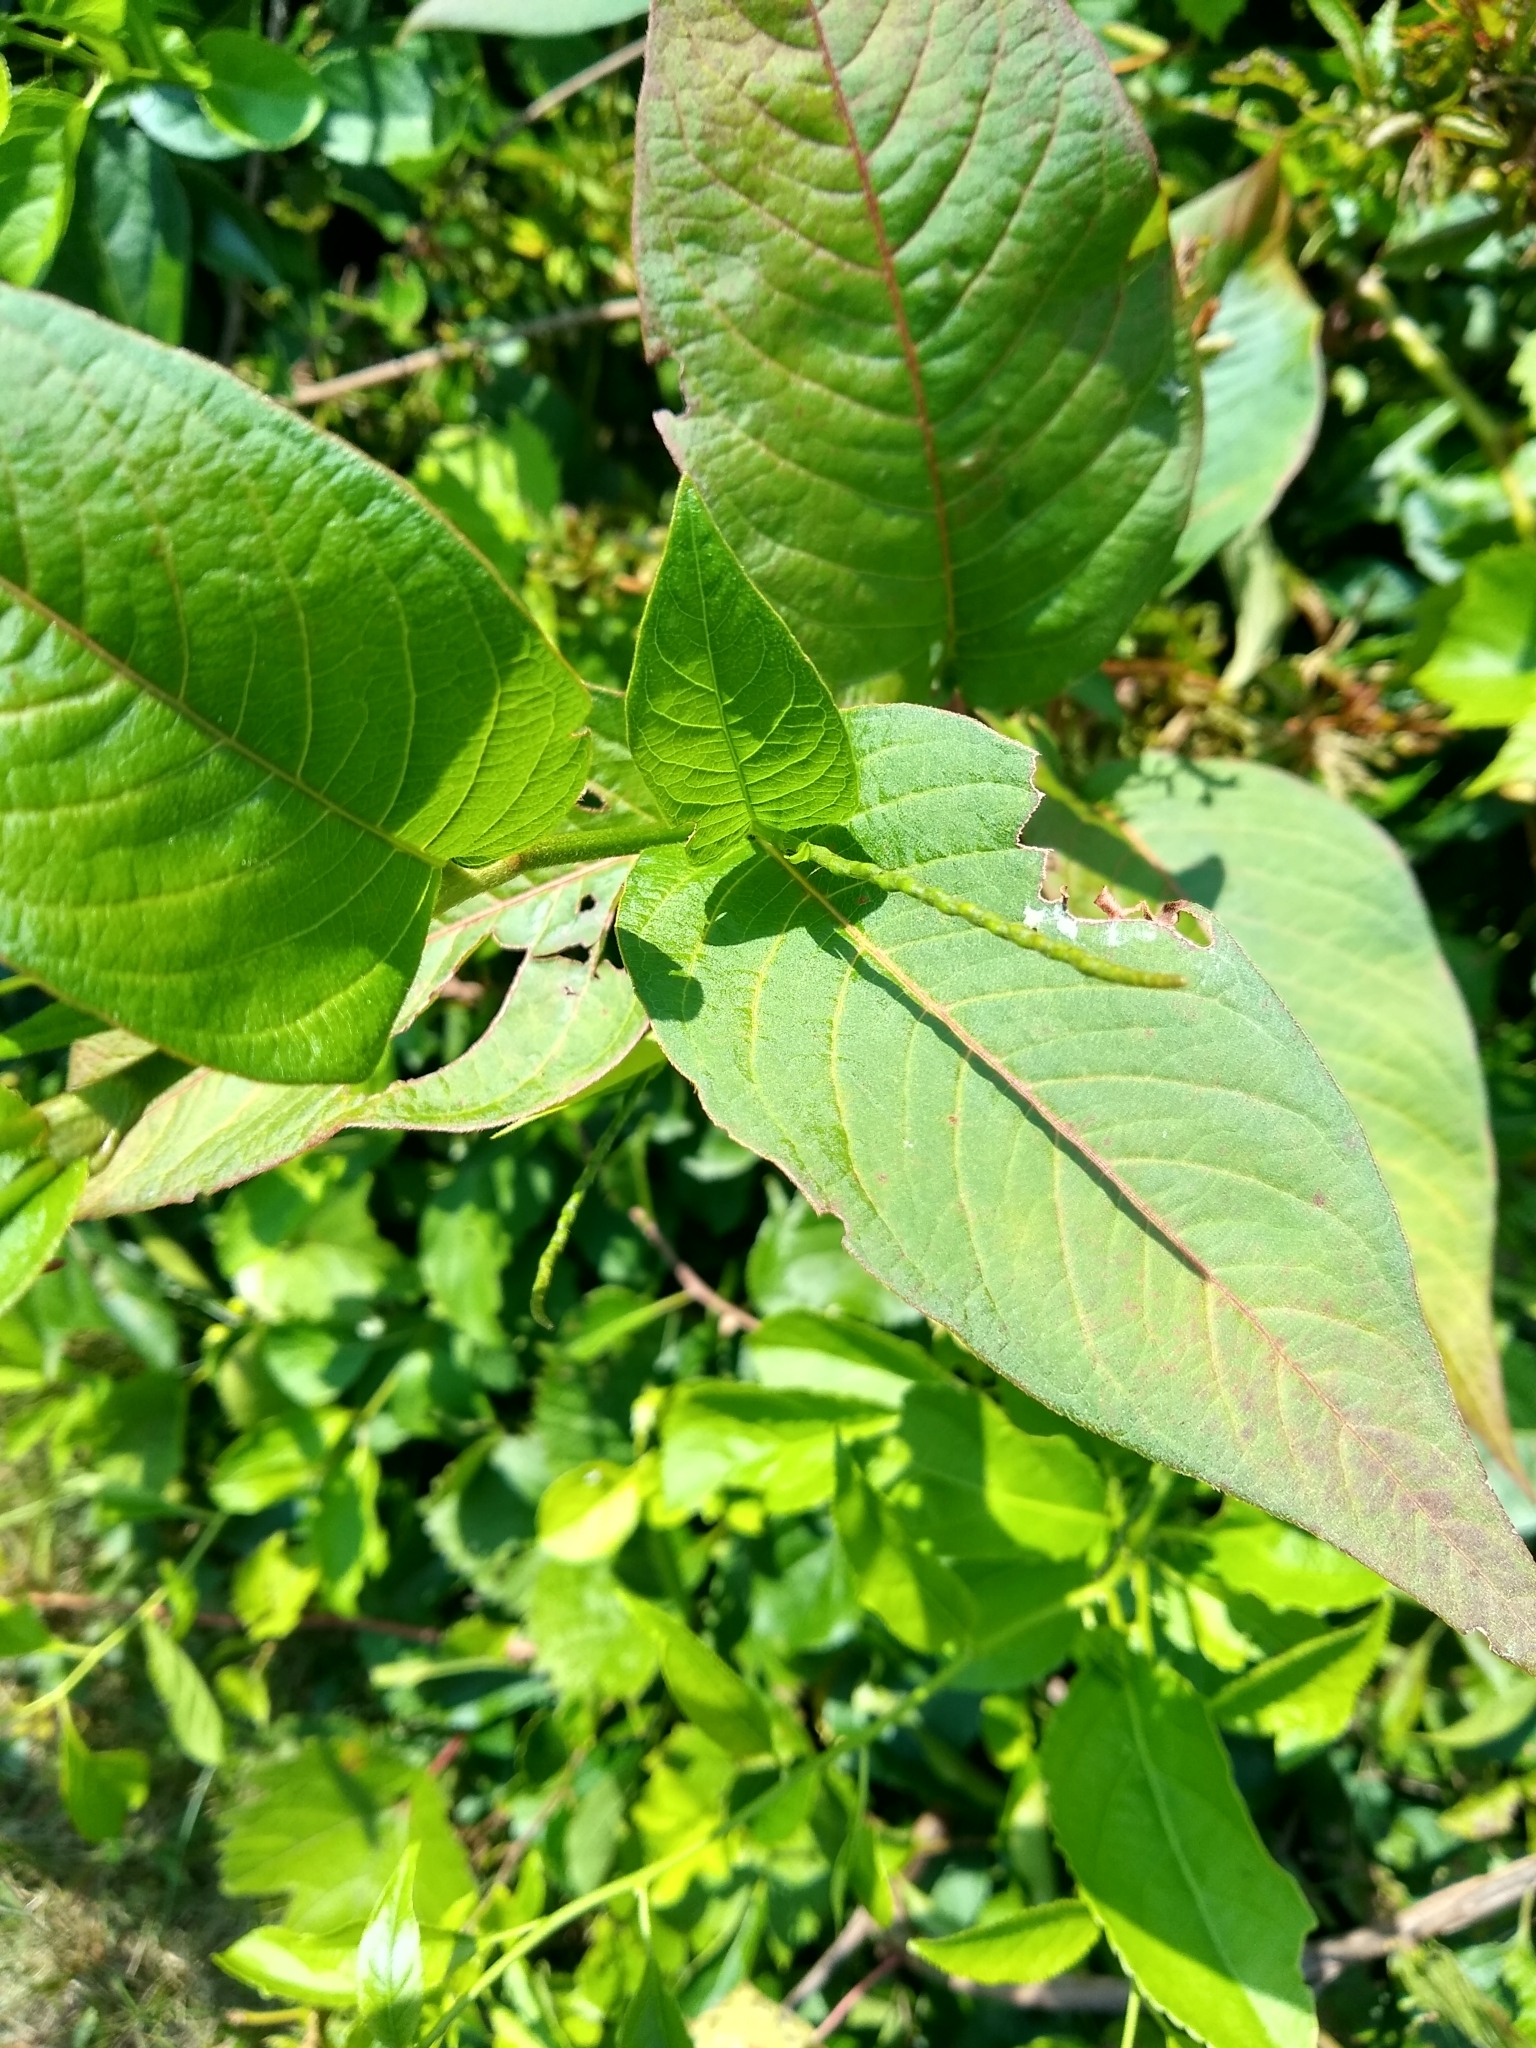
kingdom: Plantae
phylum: Tracheophyta
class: Magnoliopsida
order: Caryophyllales
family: Polygonaceae
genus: Persicaria
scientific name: Persicaria virginiana
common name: Jumpseed
